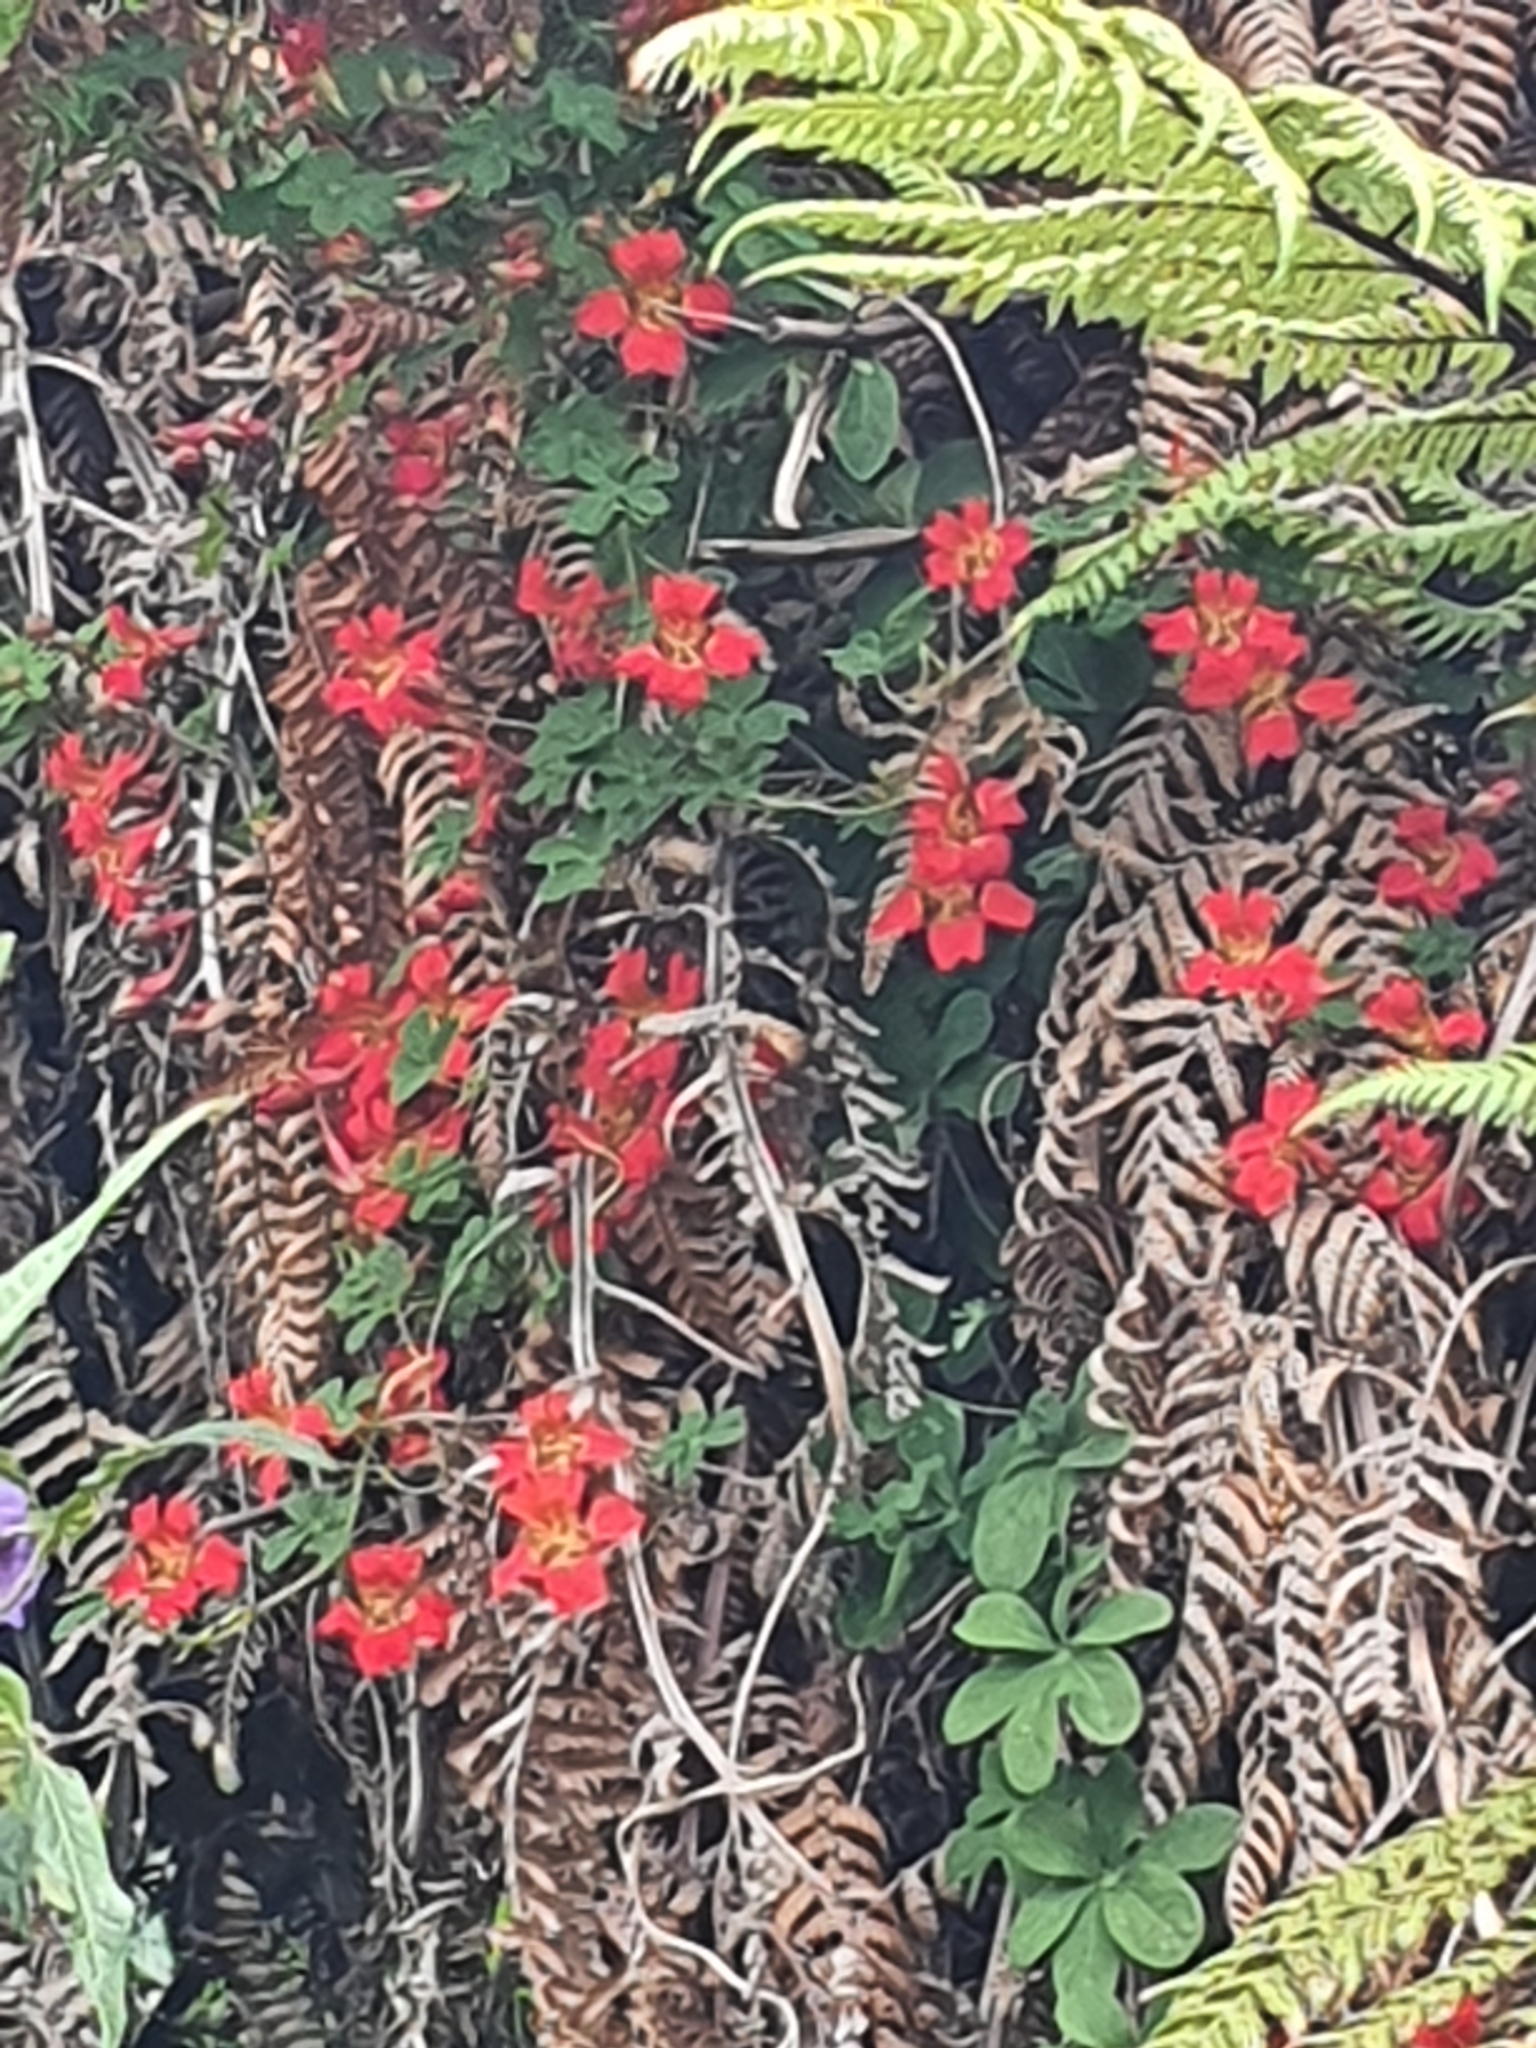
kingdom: Plantae
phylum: Tracheophyta
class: Magnoliopsida
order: Brassicales
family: Tropaeolaceae
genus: Tropaeolum
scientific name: Tropaeolum speciosum
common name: Flame nasturtium
